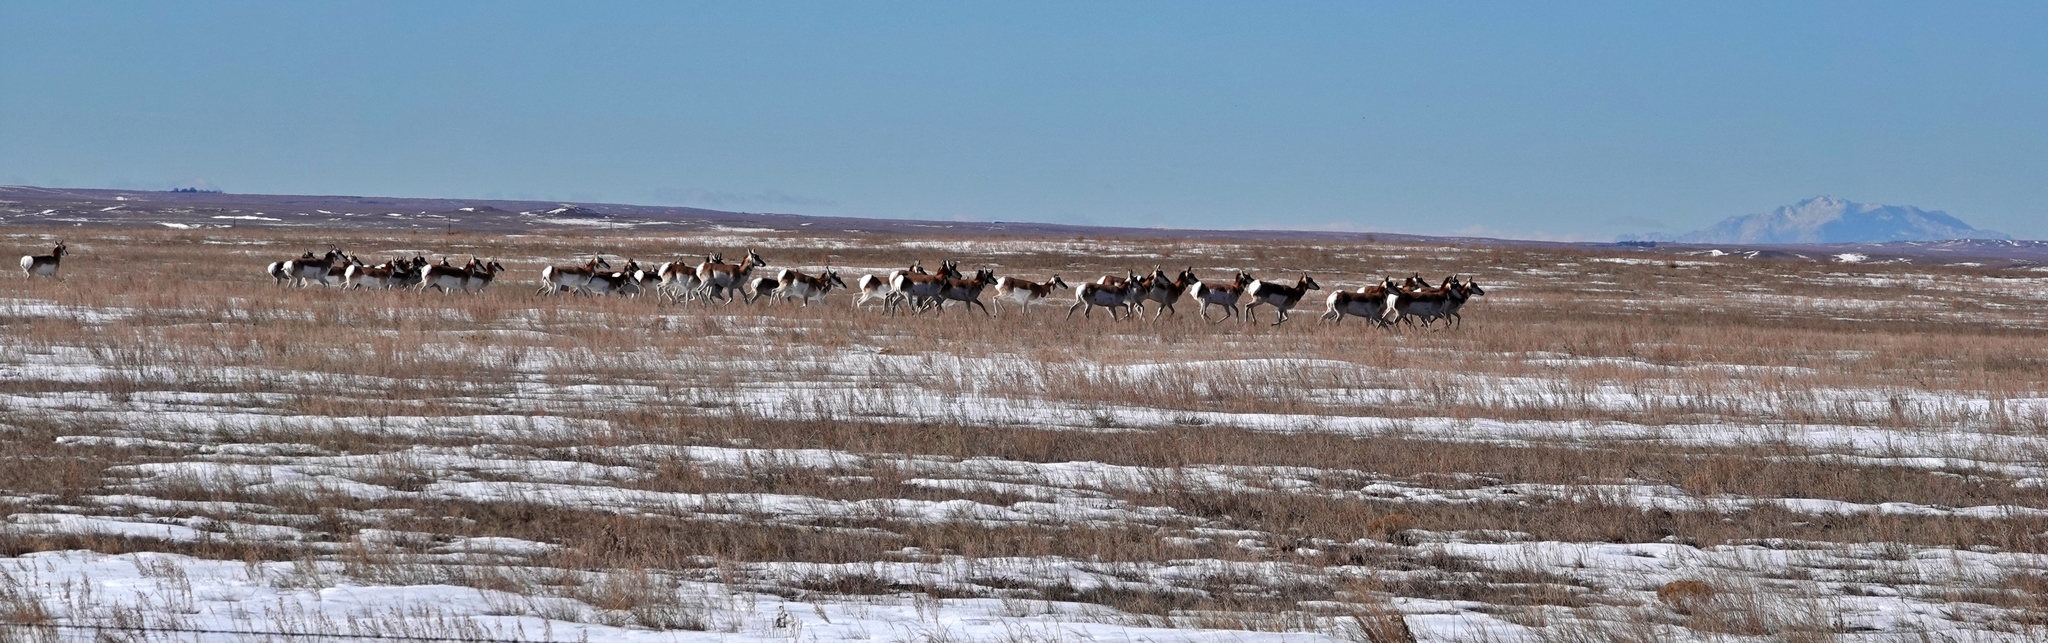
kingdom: Animalia
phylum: Chordata
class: Mammalia
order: Artiodactyla
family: Antilocapridae
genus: Antilocapra
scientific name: Antilocapra americana
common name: Pronghorn
